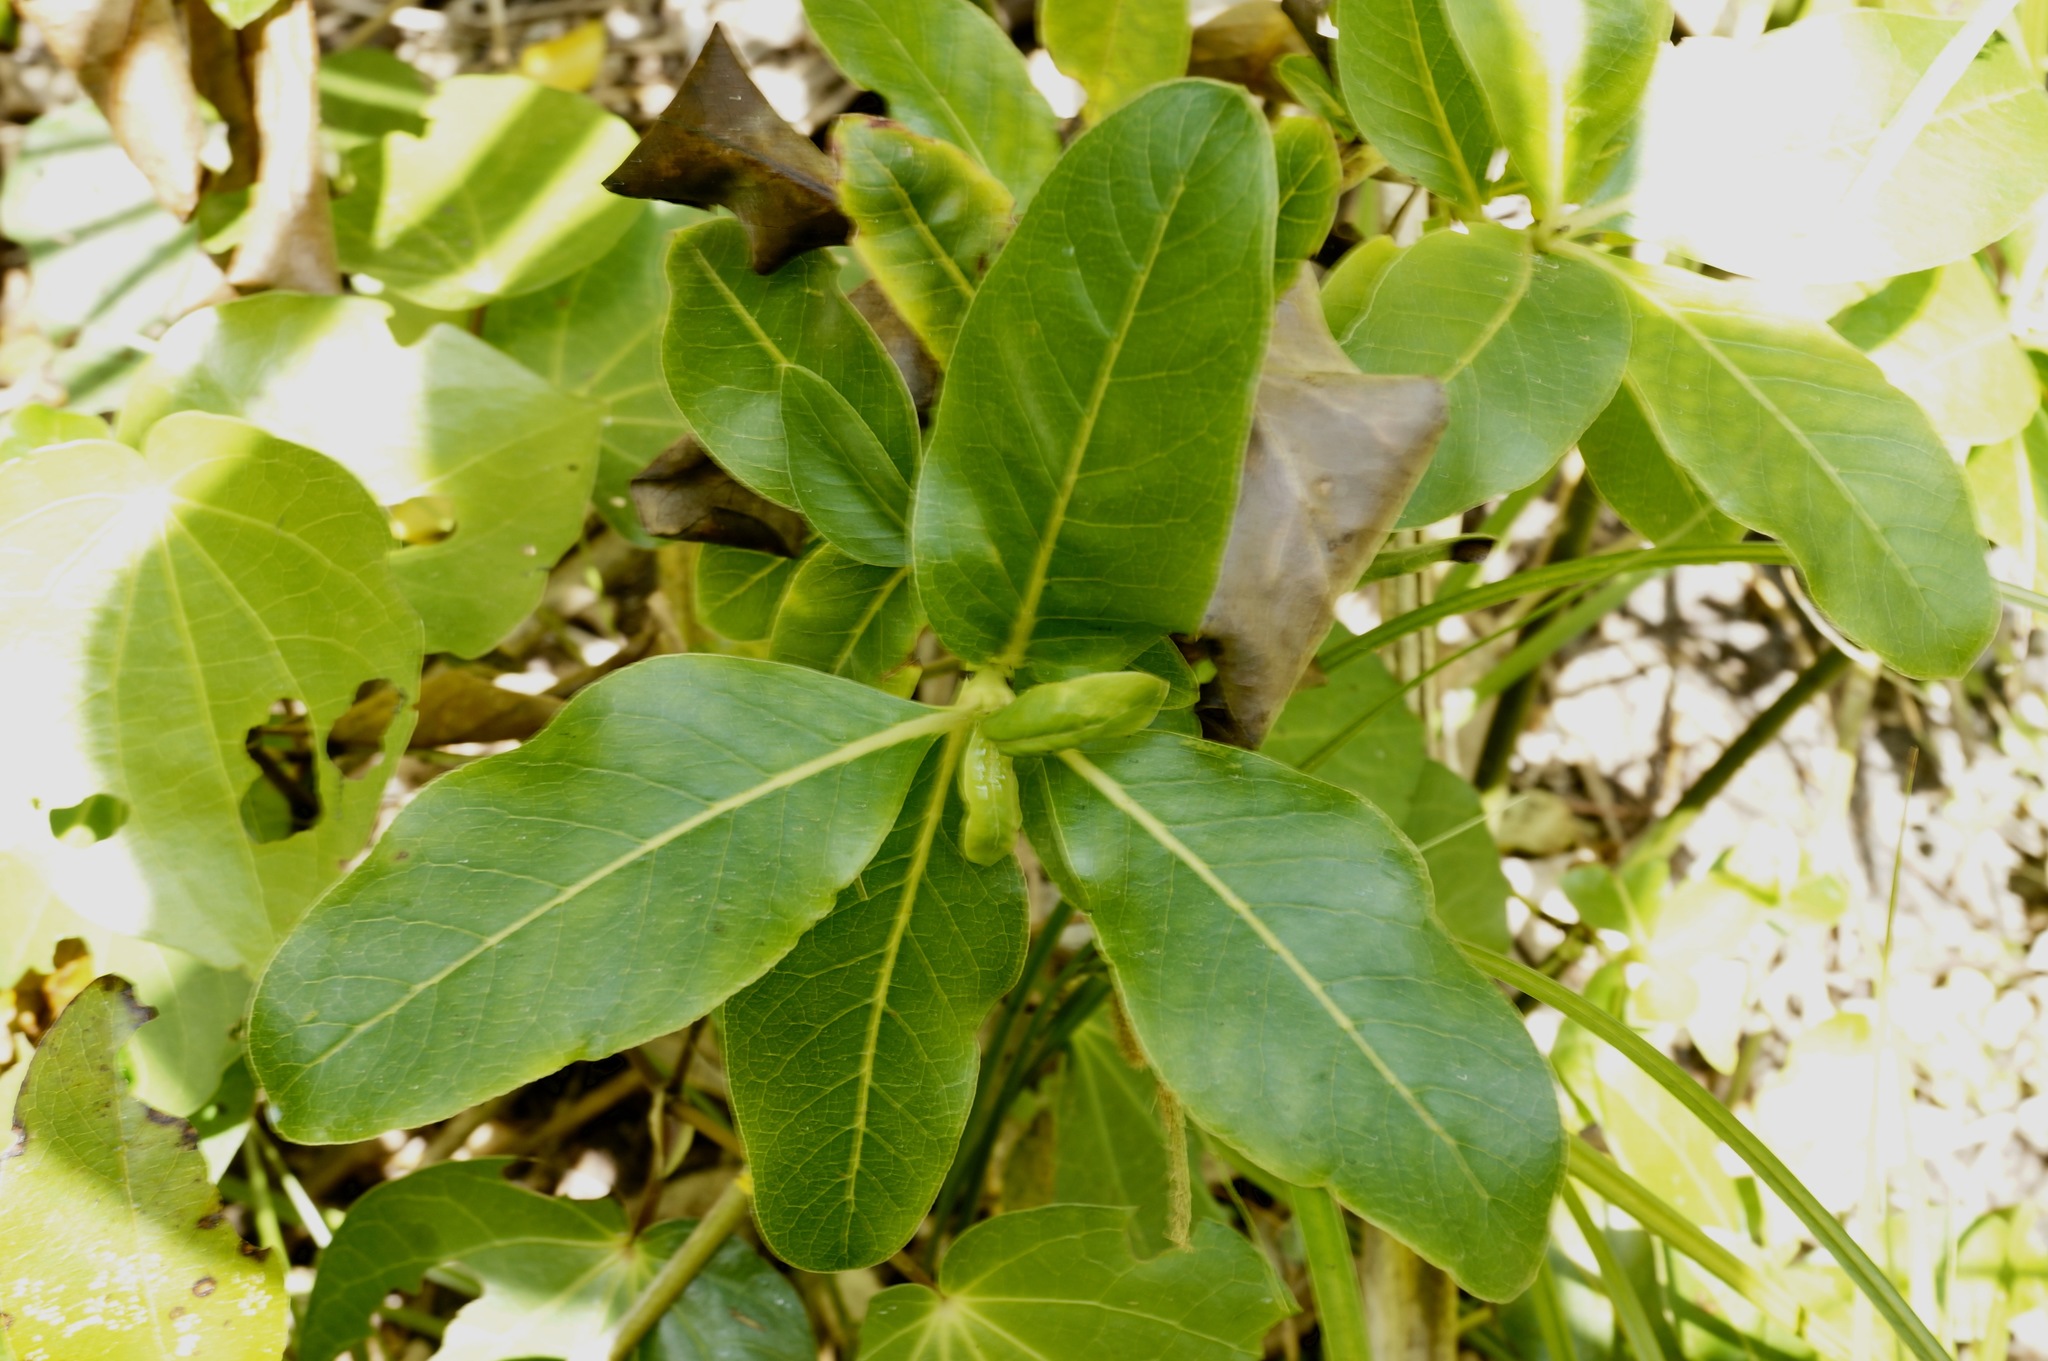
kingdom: Plantae
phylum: Tracheophyta
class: Magnoliopsida
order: Gentianales
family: Rubiaceae
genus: Coprosma
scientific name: Coprosma robusta
